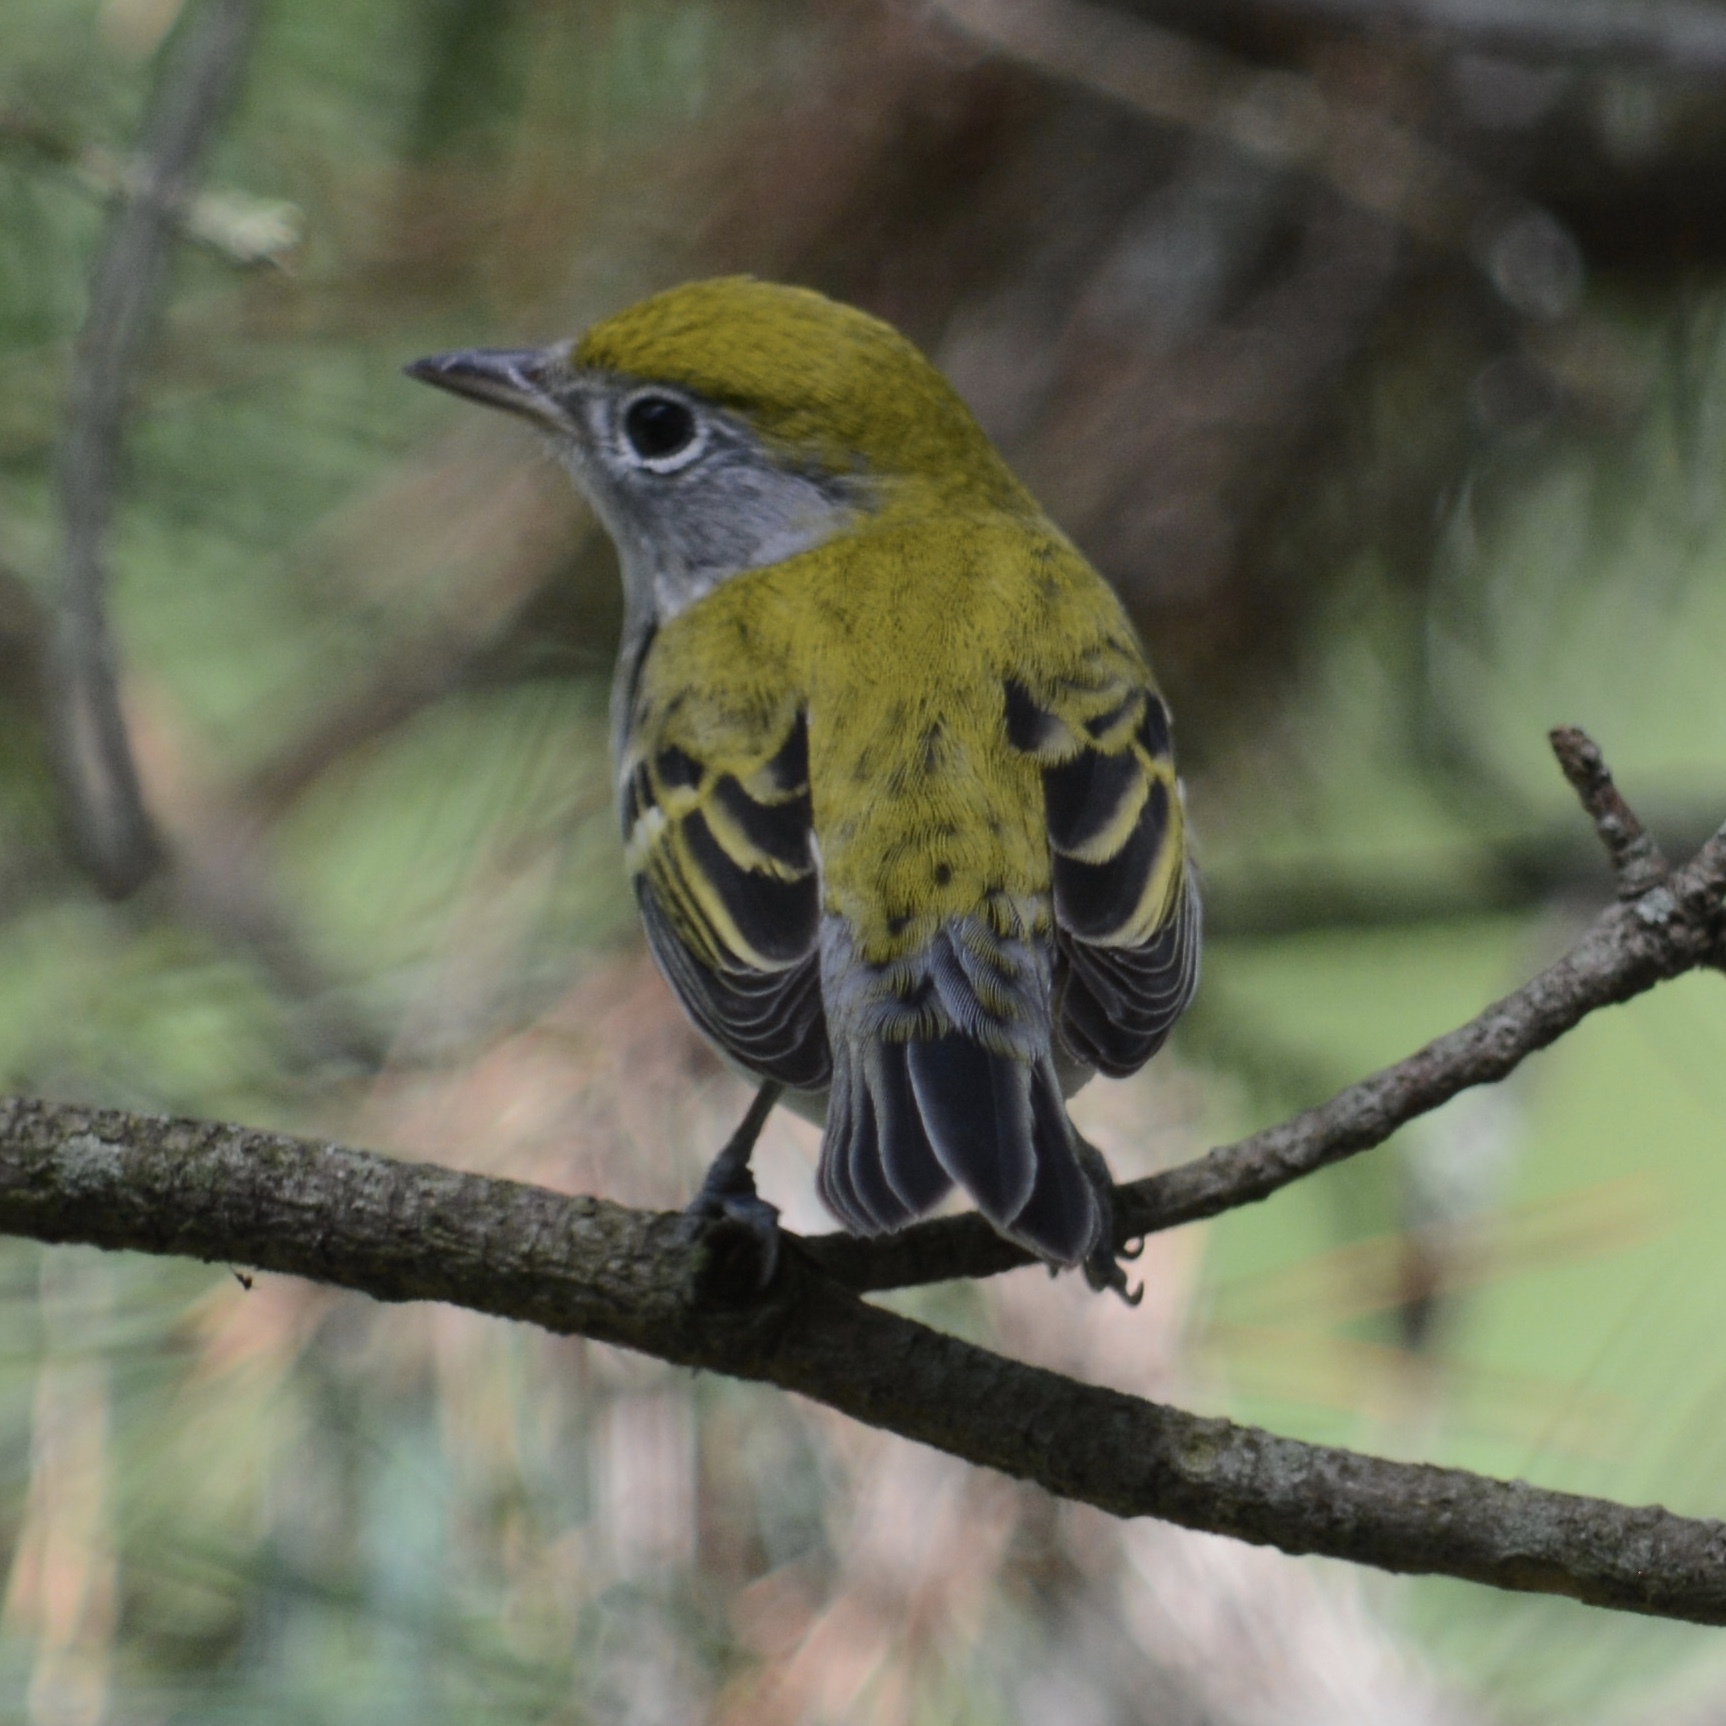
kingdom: Animalia
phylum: Chordata
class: Aves
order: Passeriformes
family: Parulidae
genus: Setophaga
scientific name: Setophaga pensylvanica
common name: Chestnut-sided warbler
